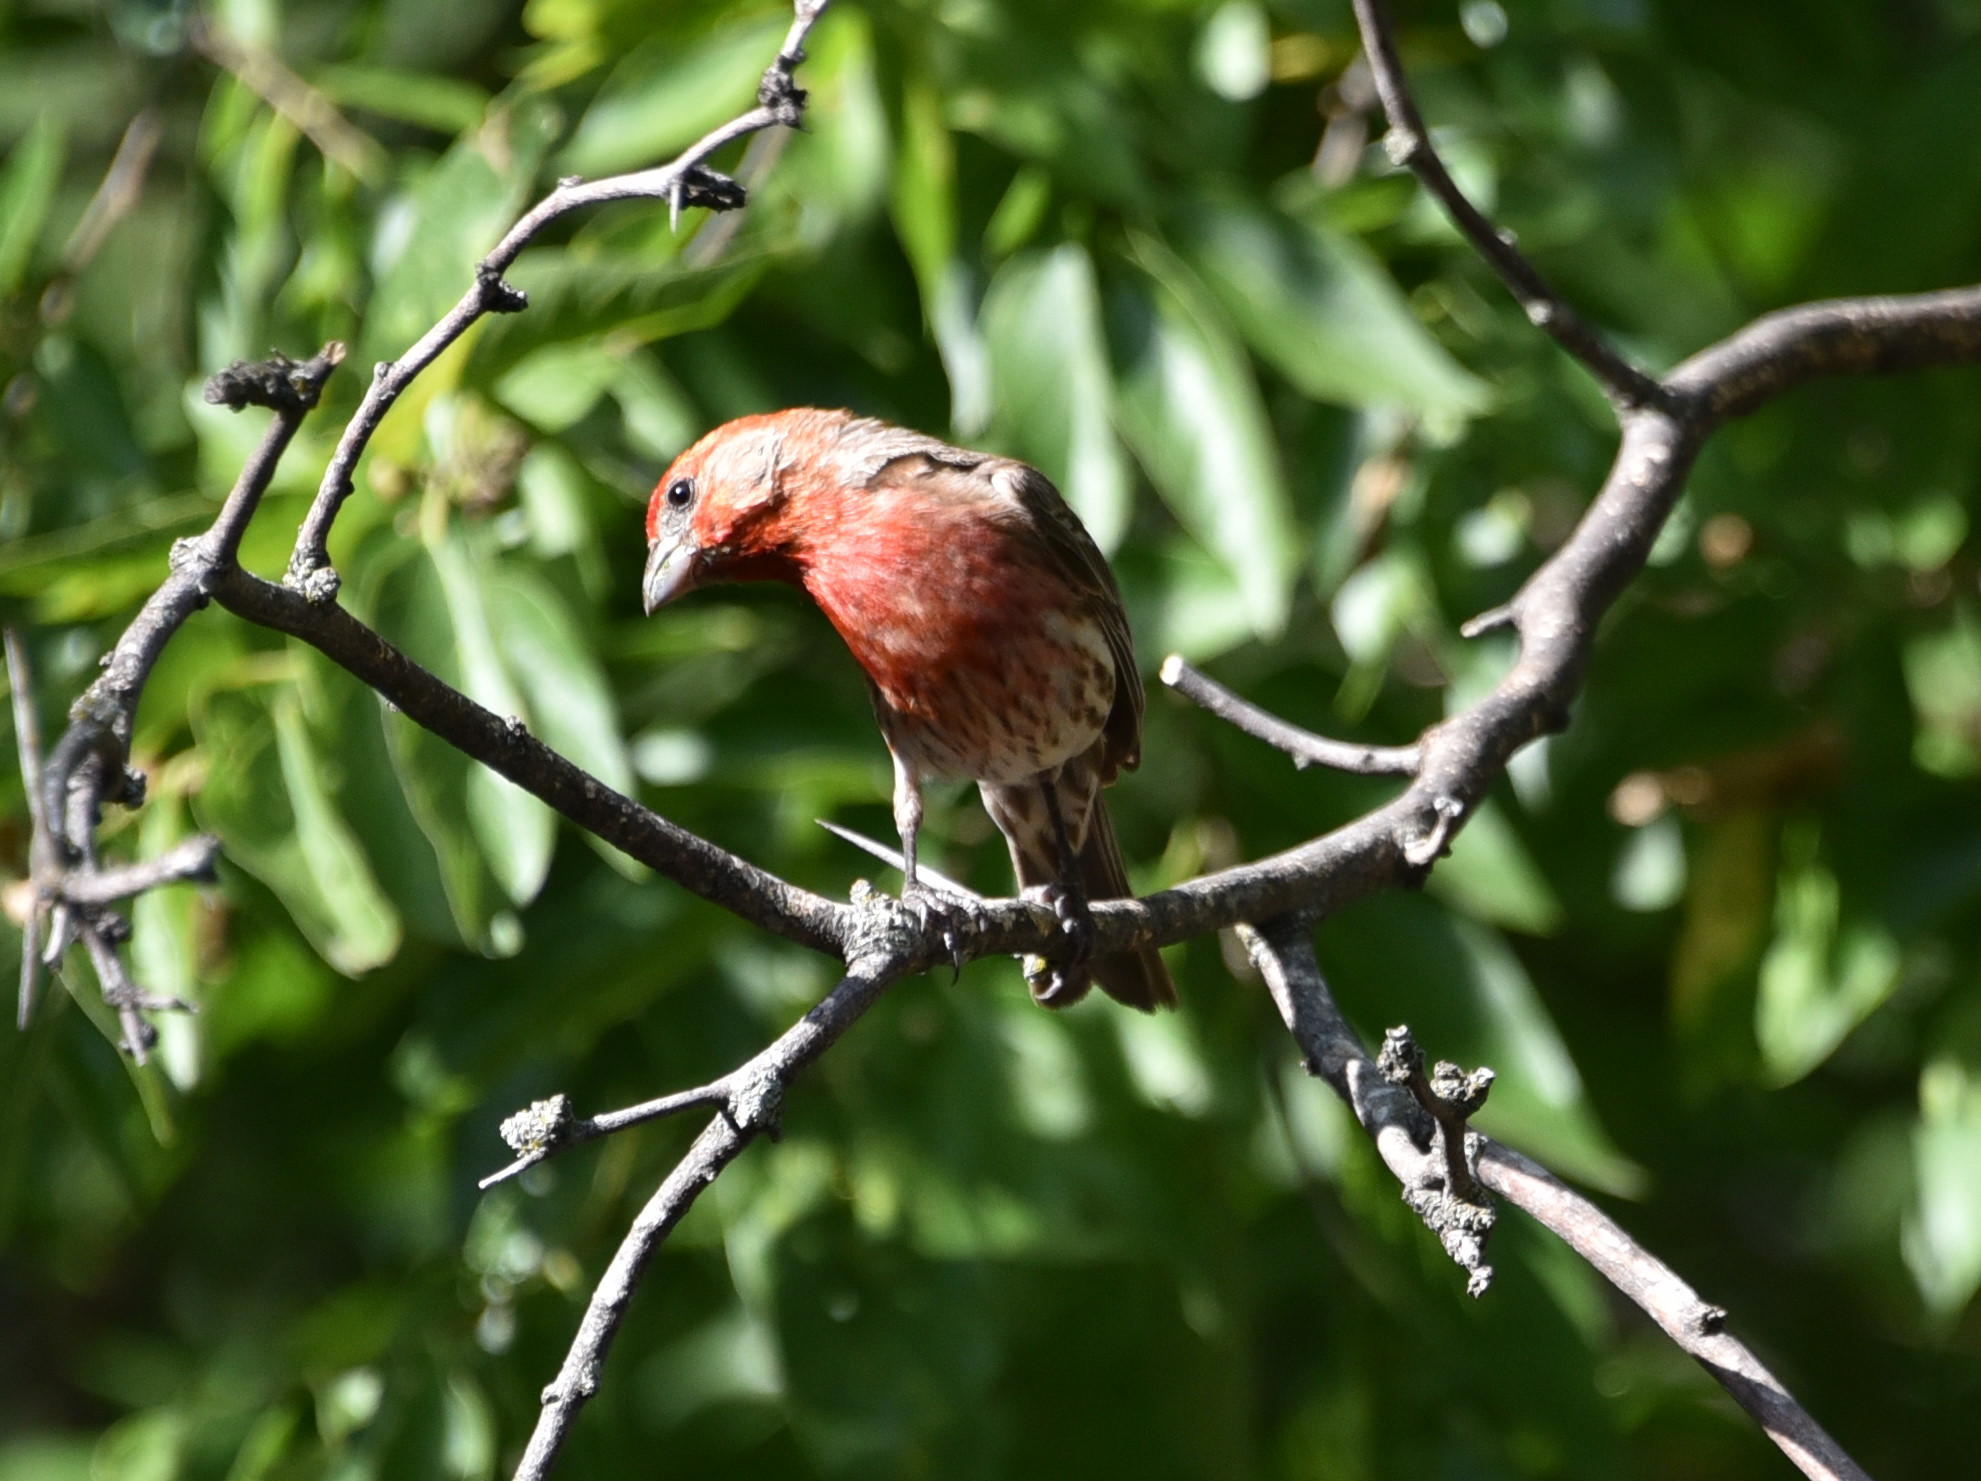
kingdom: Animalia
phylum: Chordata
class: Aves
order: Passeriformes
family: Fringillidae
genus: Haemorhous
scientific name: Haemorhous mexicanus
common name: House finch
